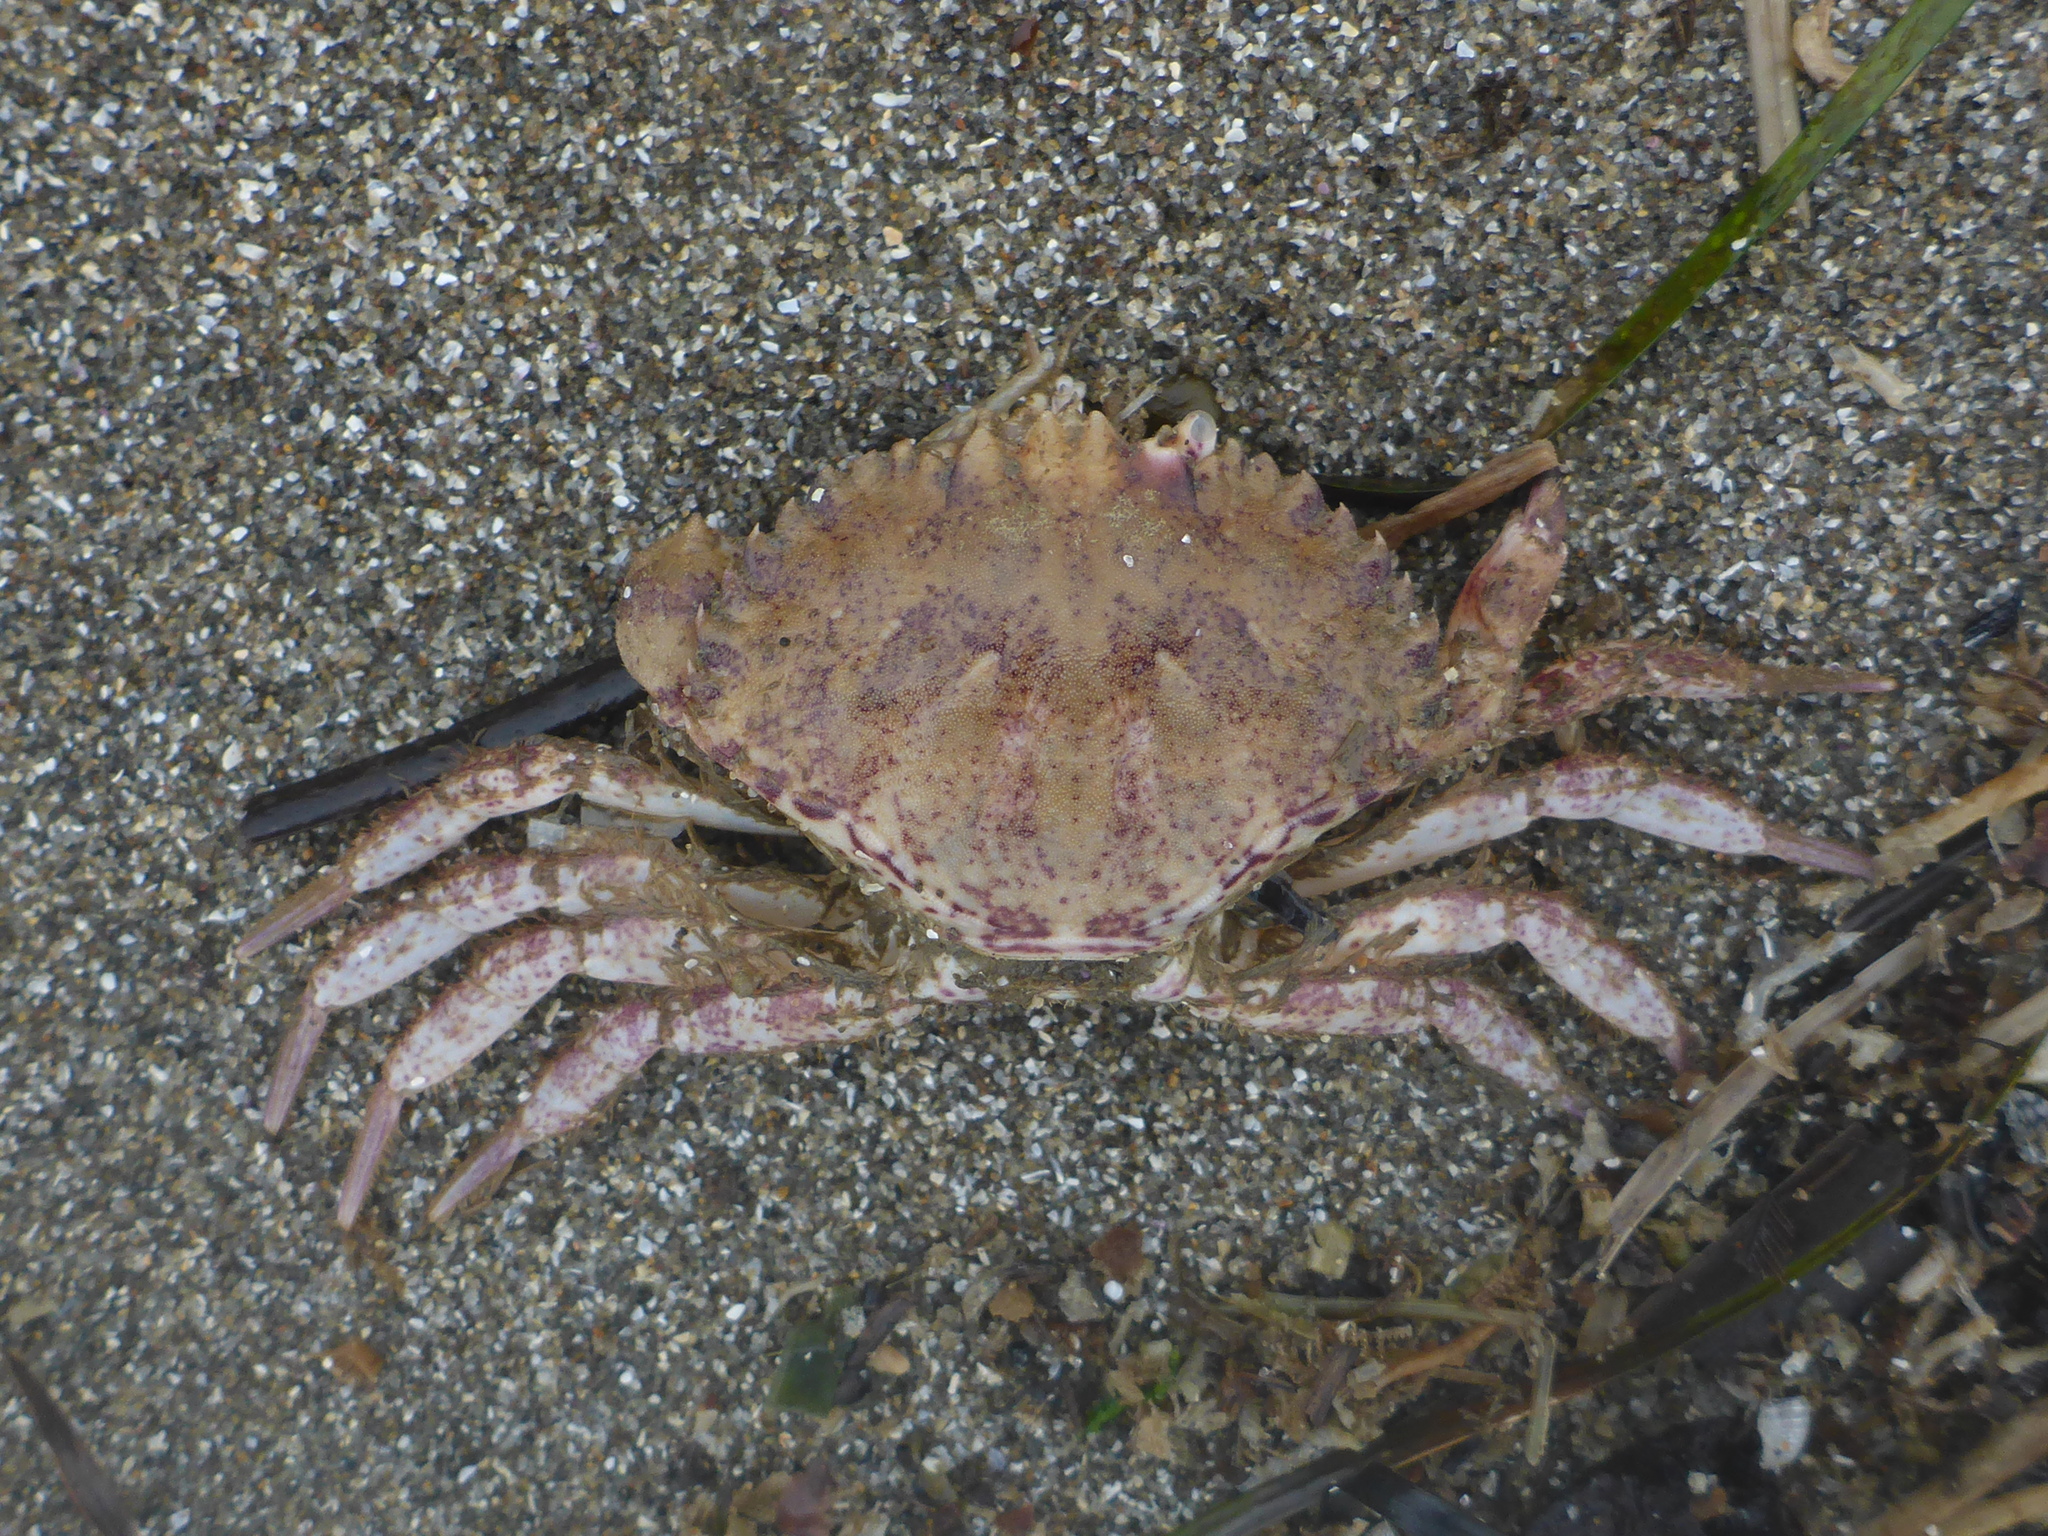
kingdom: Animalia
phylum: Arthropoda
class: Malacostraca
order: Decapoda
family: Cancridae
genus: Romaleon
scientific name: Romaleon antennarium
